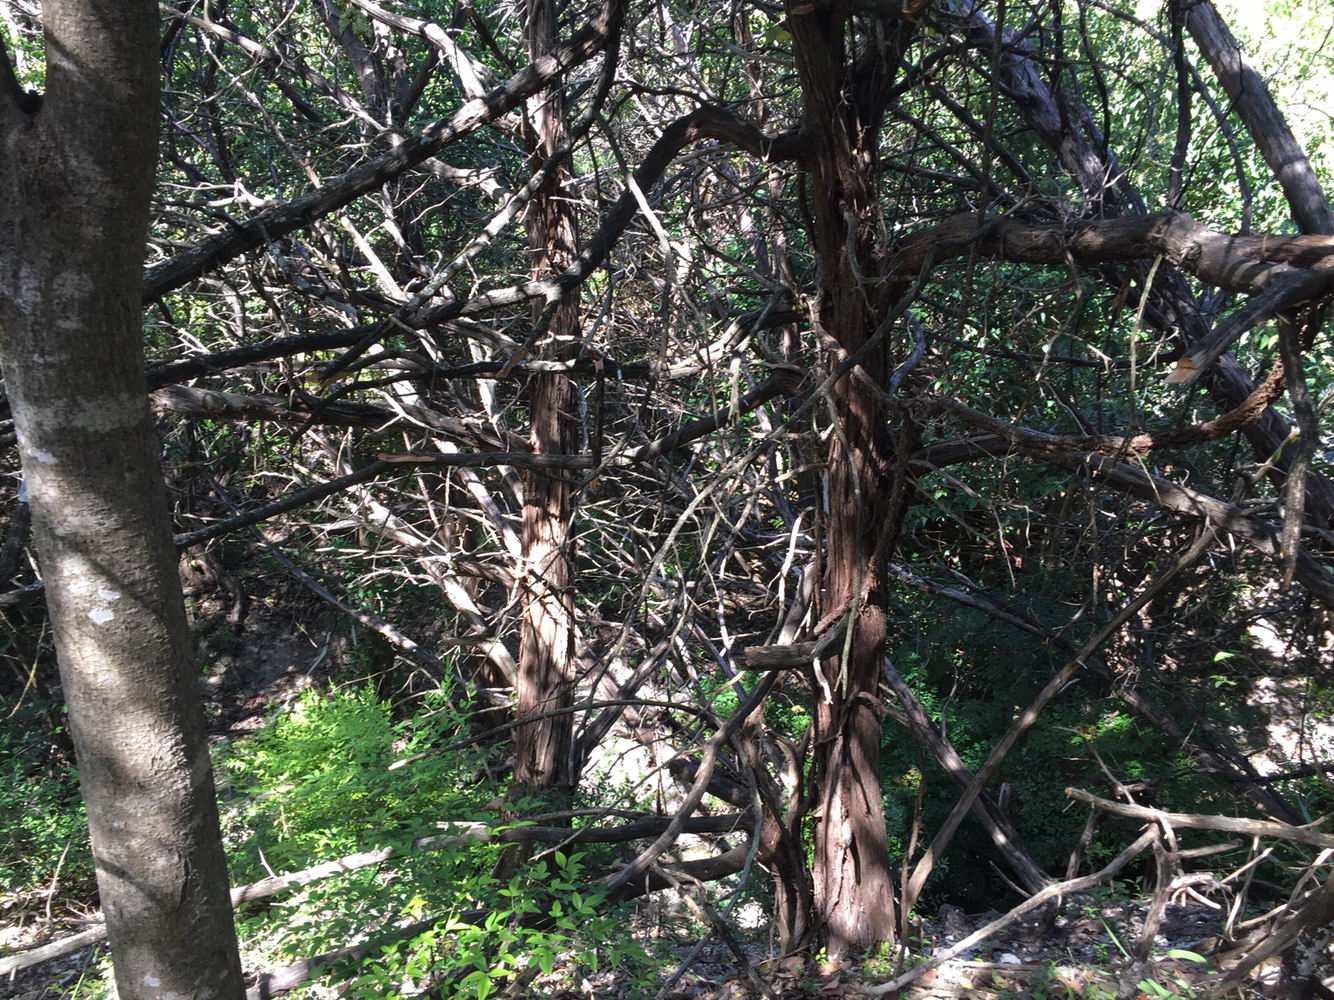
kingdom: Plantae
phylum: Tracheophyta
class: Pinopsida
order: Pinales
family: Cupressaceae
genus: Juniperus
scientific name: Juniperus ashei
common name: Mexican juniper
